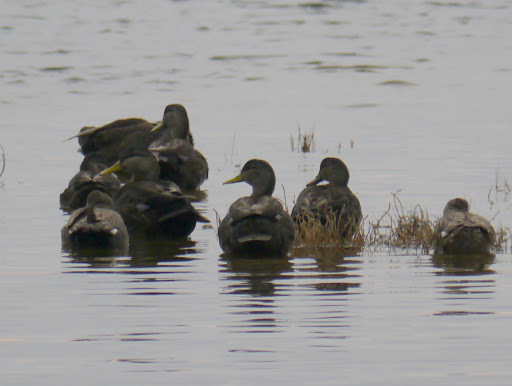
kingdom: Animalia
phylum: Chordata
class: Aves
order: Anseriformes
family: Anatidae
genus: Anas
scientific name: Anas rubripes
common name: American black duck
